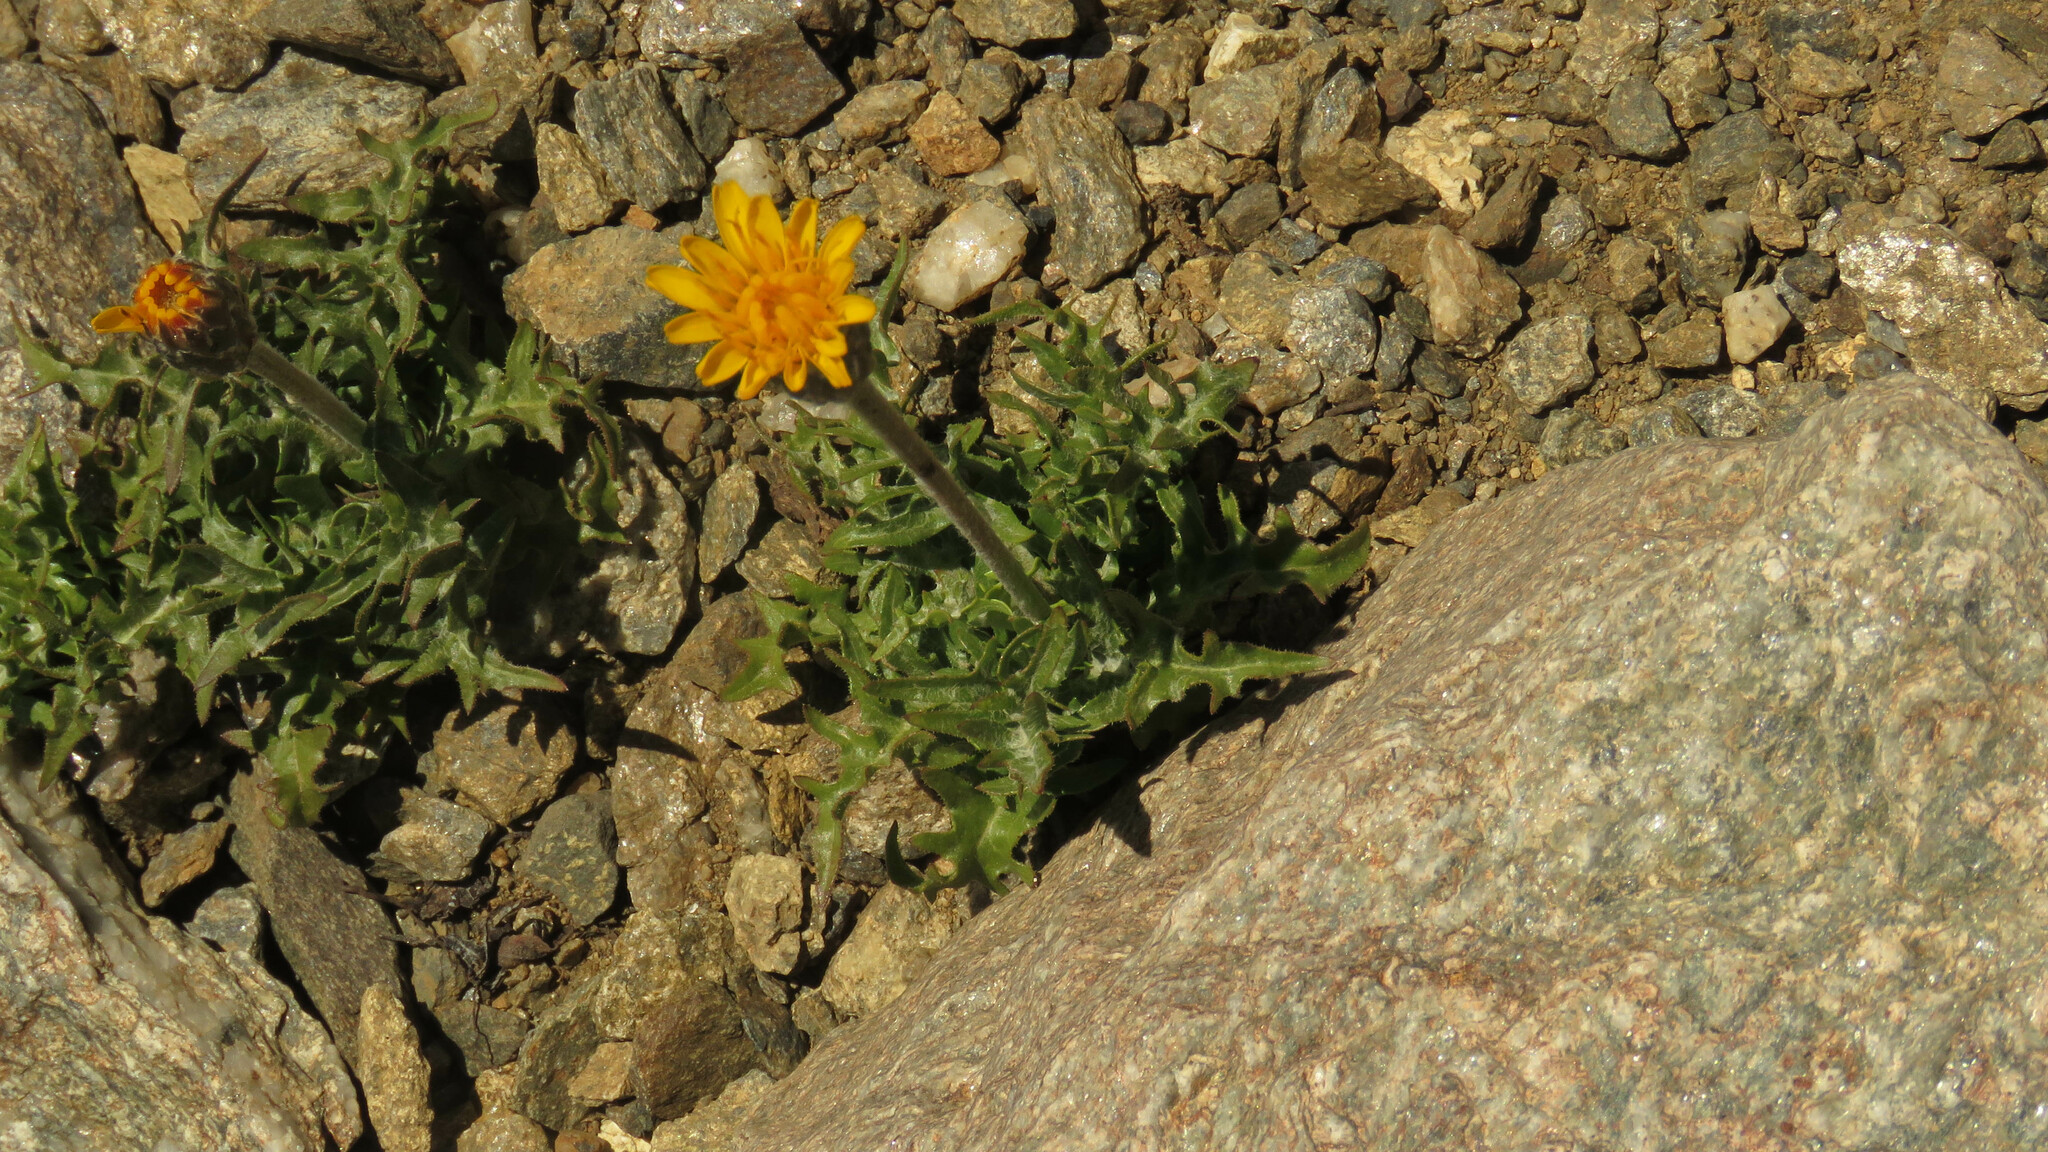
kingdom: Plantae
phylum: Tracheophyta
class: Magnoliopsida
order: Asterales
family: Asteraceae
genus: Hypochaeris
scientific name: Hypochaeris tenuifolia
